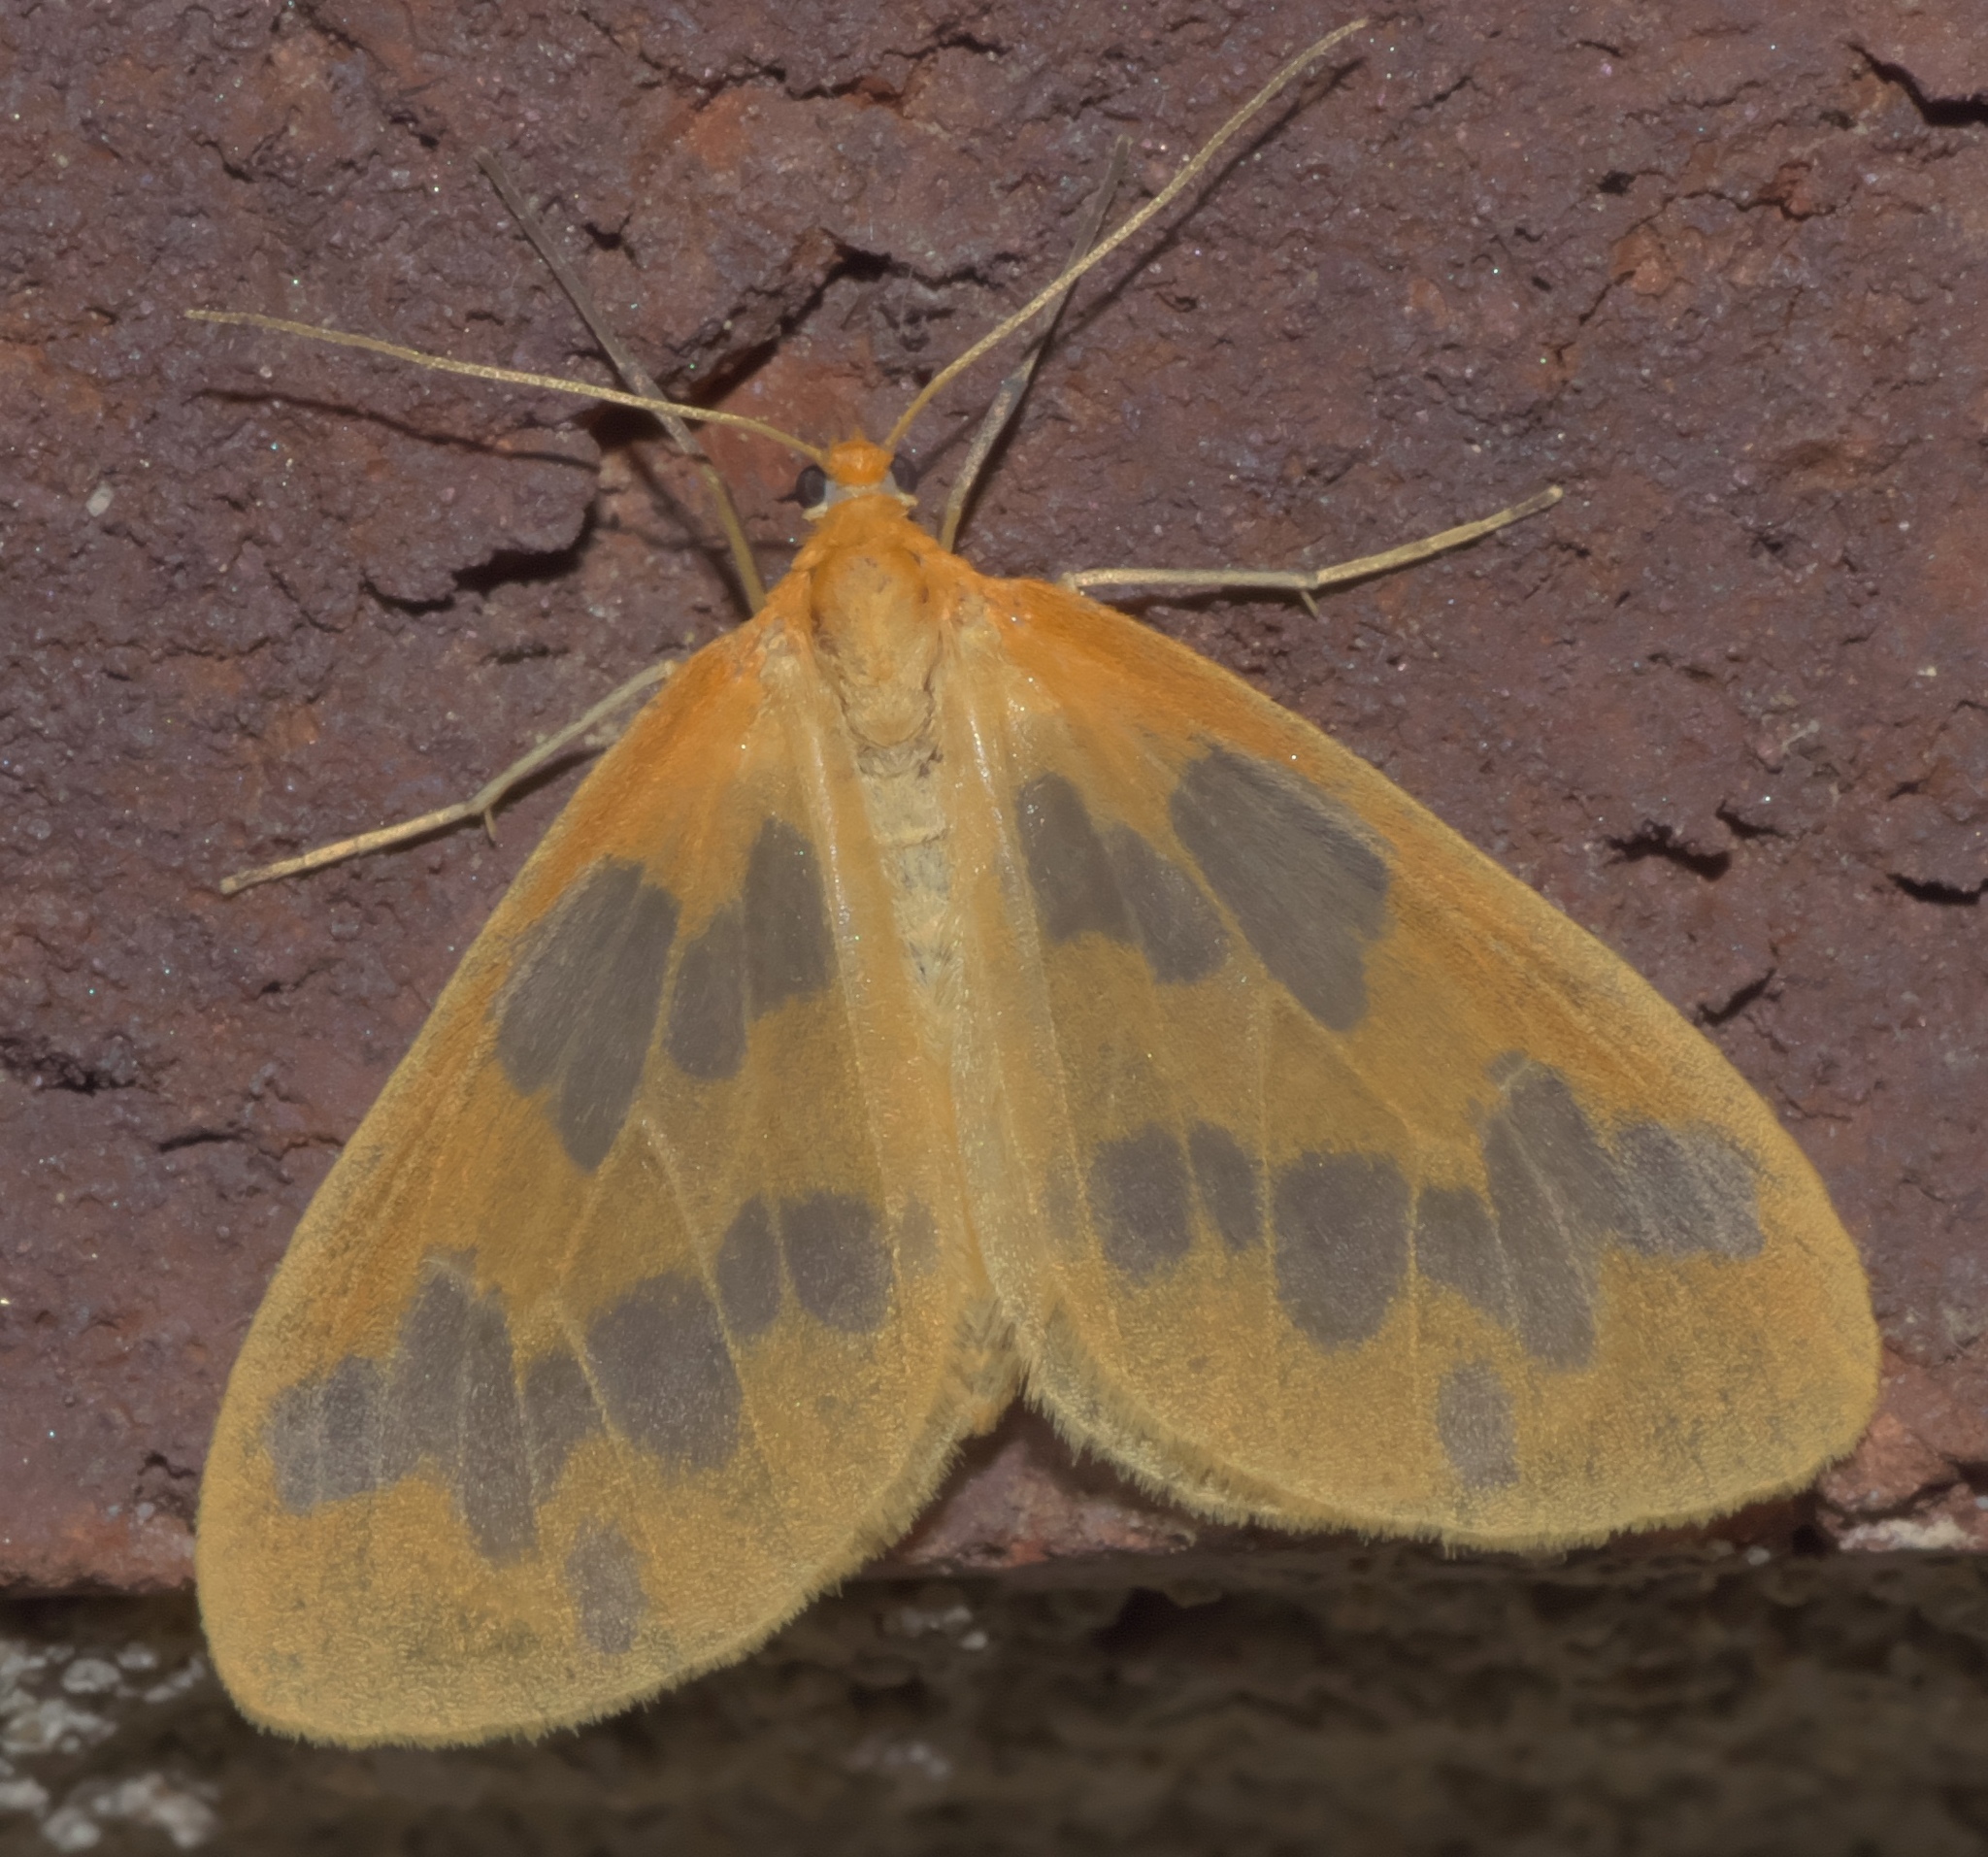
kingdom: Animalia
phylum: Arthropoda
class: Insecta
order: Lepidoptera
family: Geometridae
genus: Eubaphe
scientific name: Eubaphe mendica
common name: Beggar
